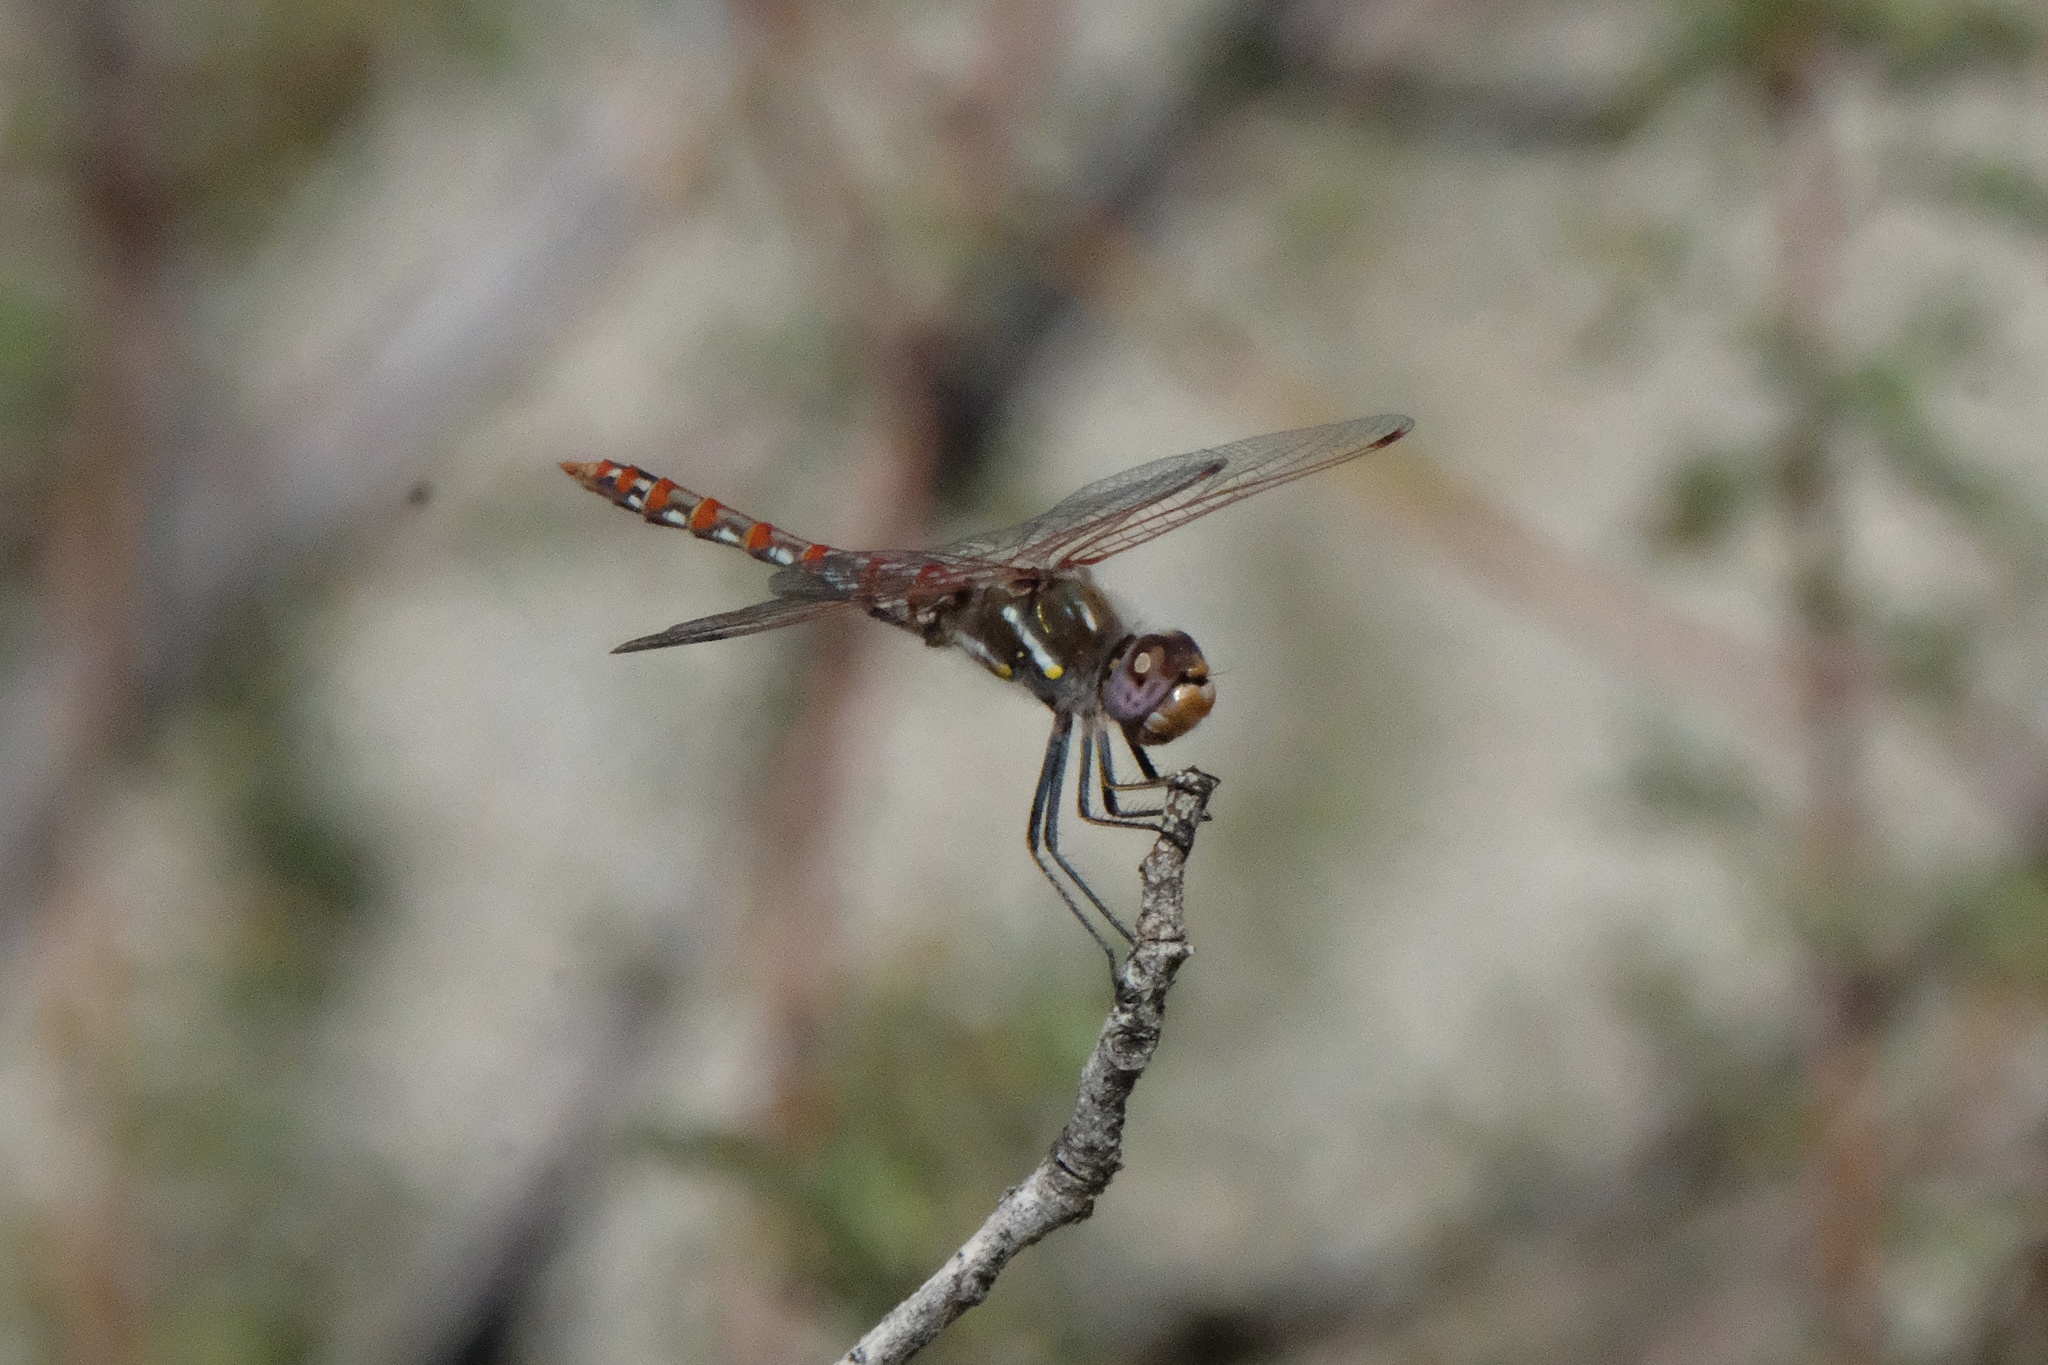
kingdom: Animalia
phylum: Arthropoda
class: Insecta
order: Odonata
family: Libellulidae
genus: Sympetrum
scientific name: Sympetrum corruptum
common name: Variegated meadowhawk
